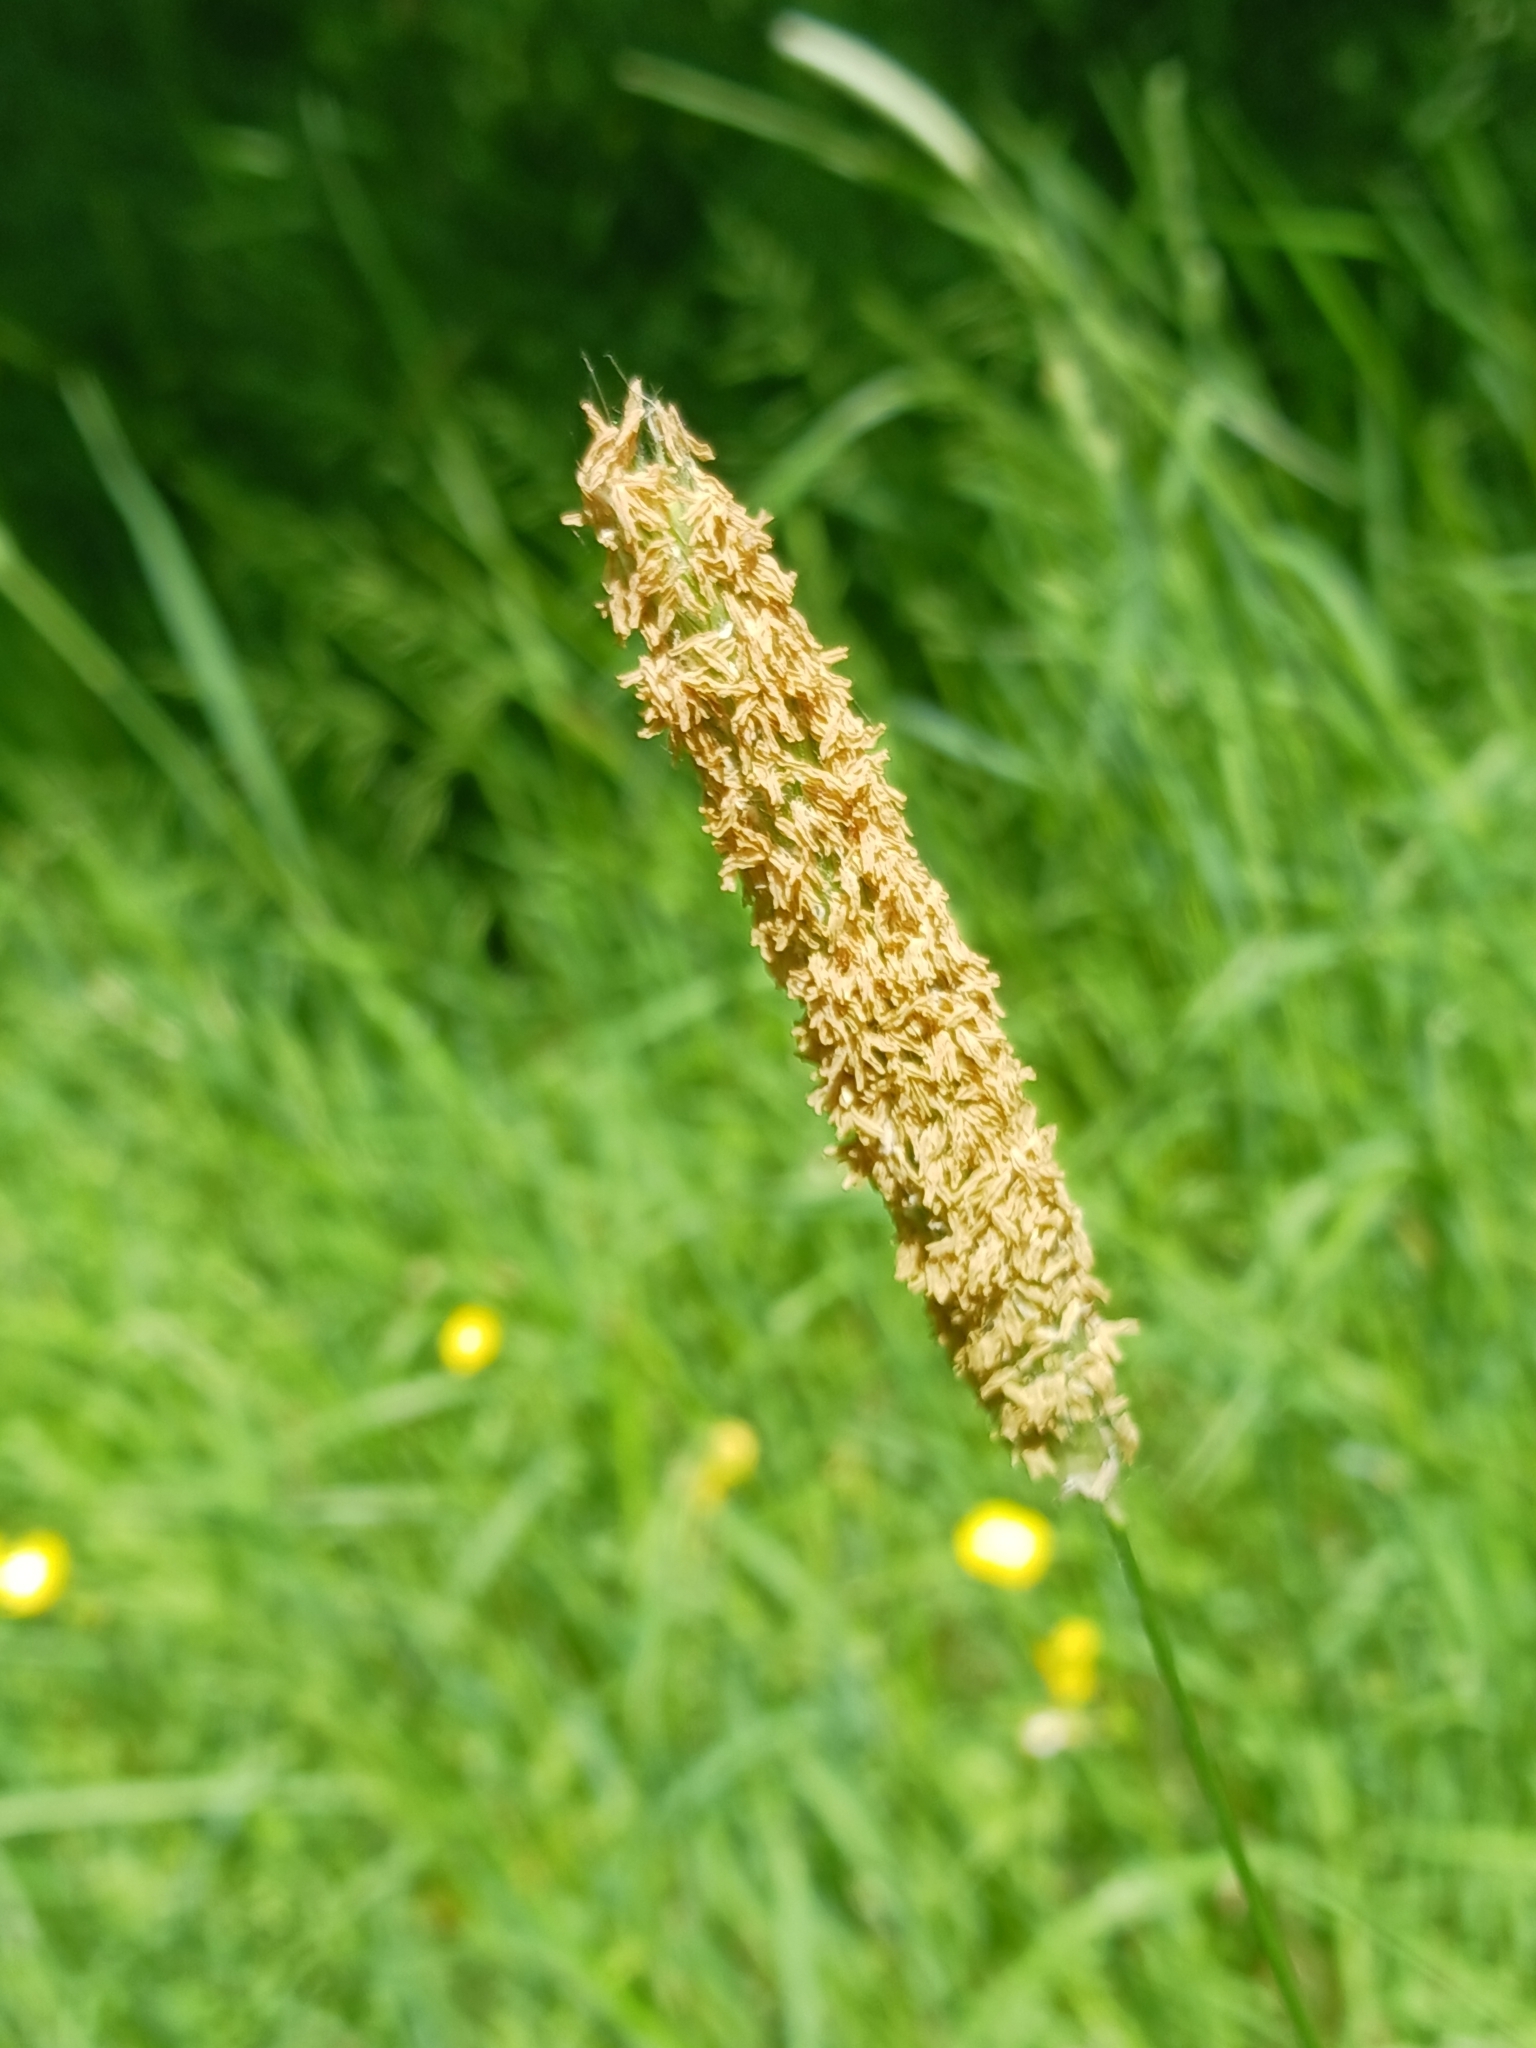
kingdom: Plantae
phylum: Tracheophyta
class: Liliopsida
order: Poales
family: Poaceae
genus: Alopecurus
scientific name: Alopecurus pratensis
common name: Meadow foxtail
